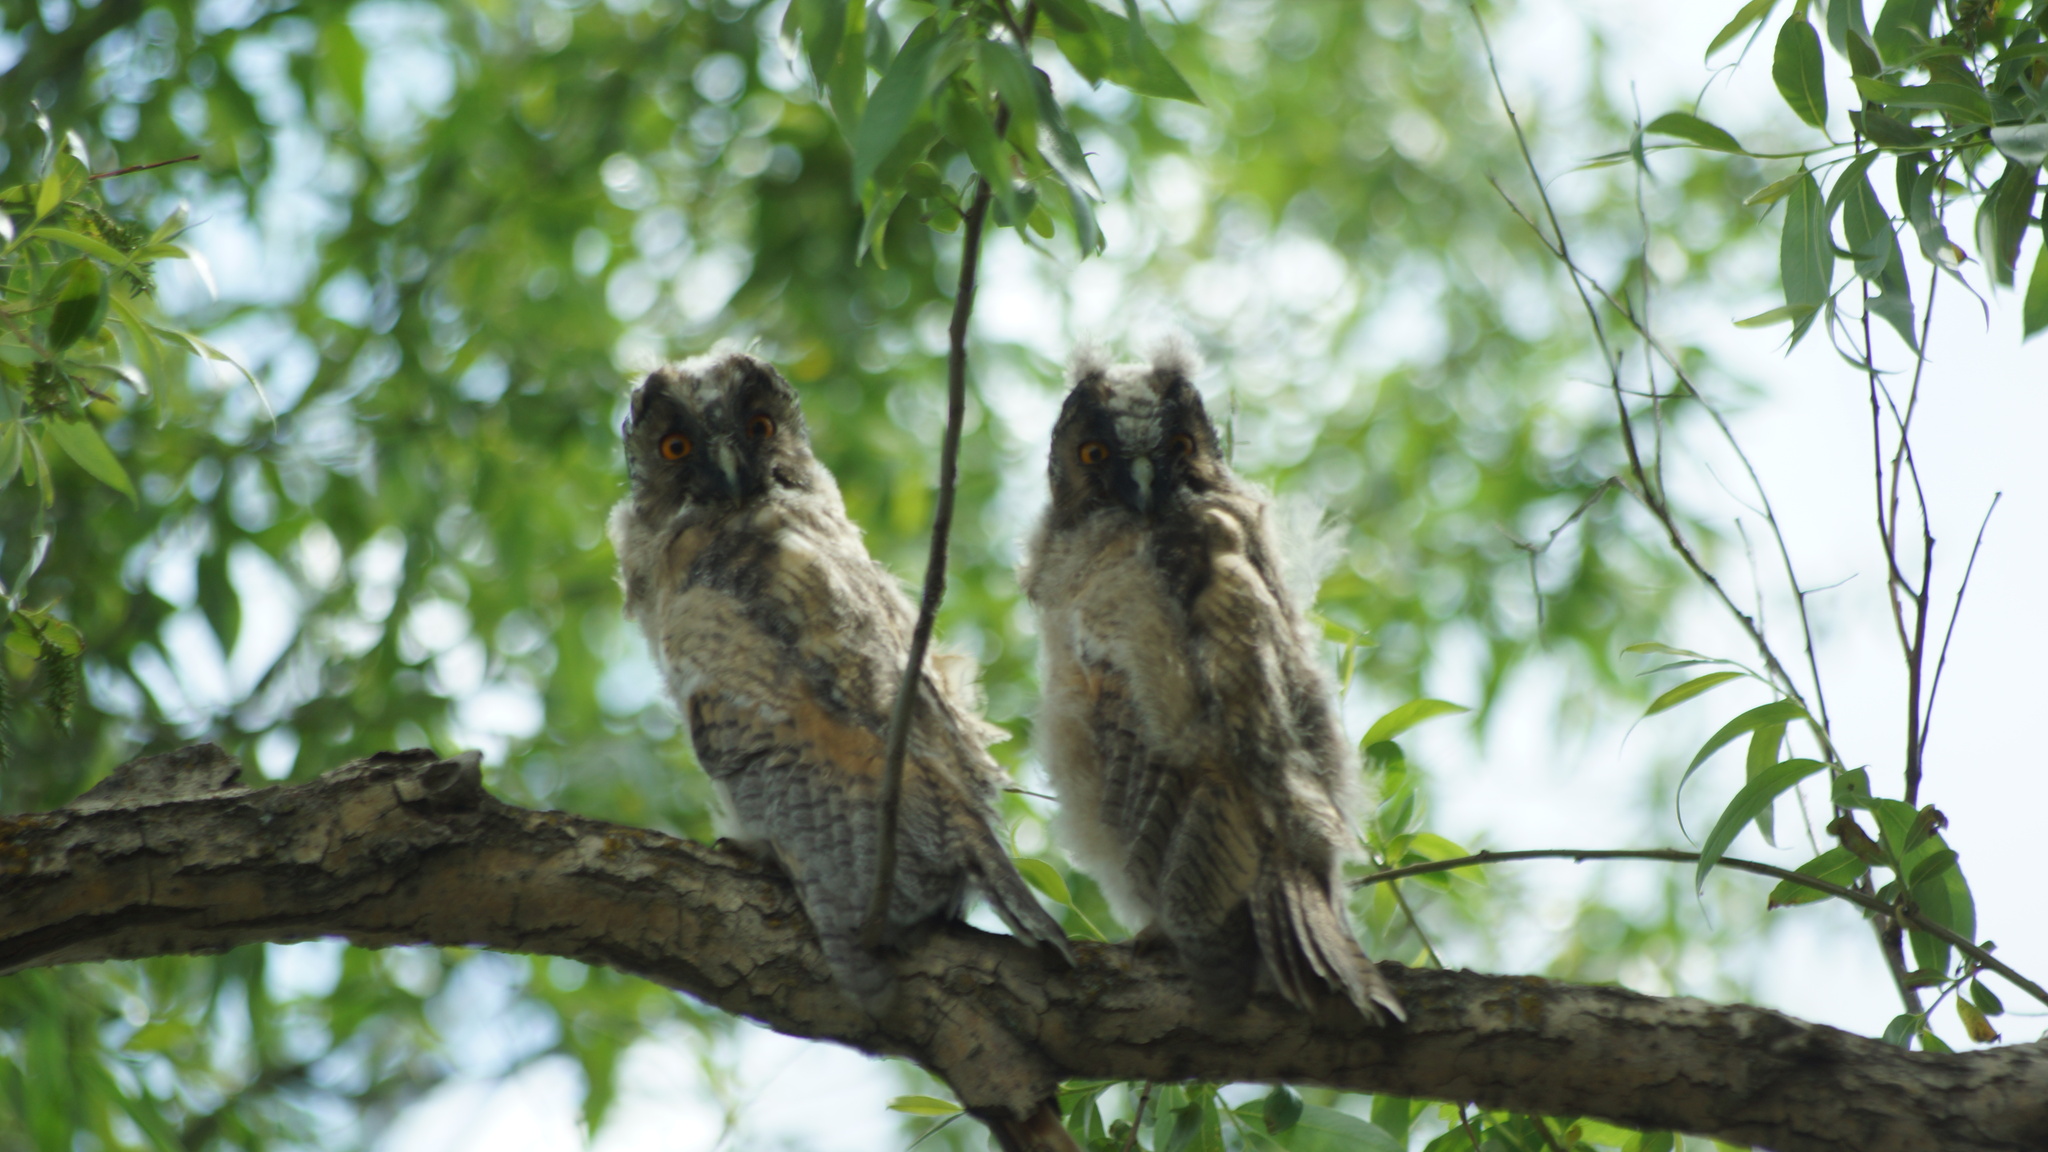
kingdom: Animalia
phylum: Chordata
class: Aves
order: Strigiformes
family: Strigidae
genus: Asio
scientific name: Asio otus
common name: Long-eared owl
